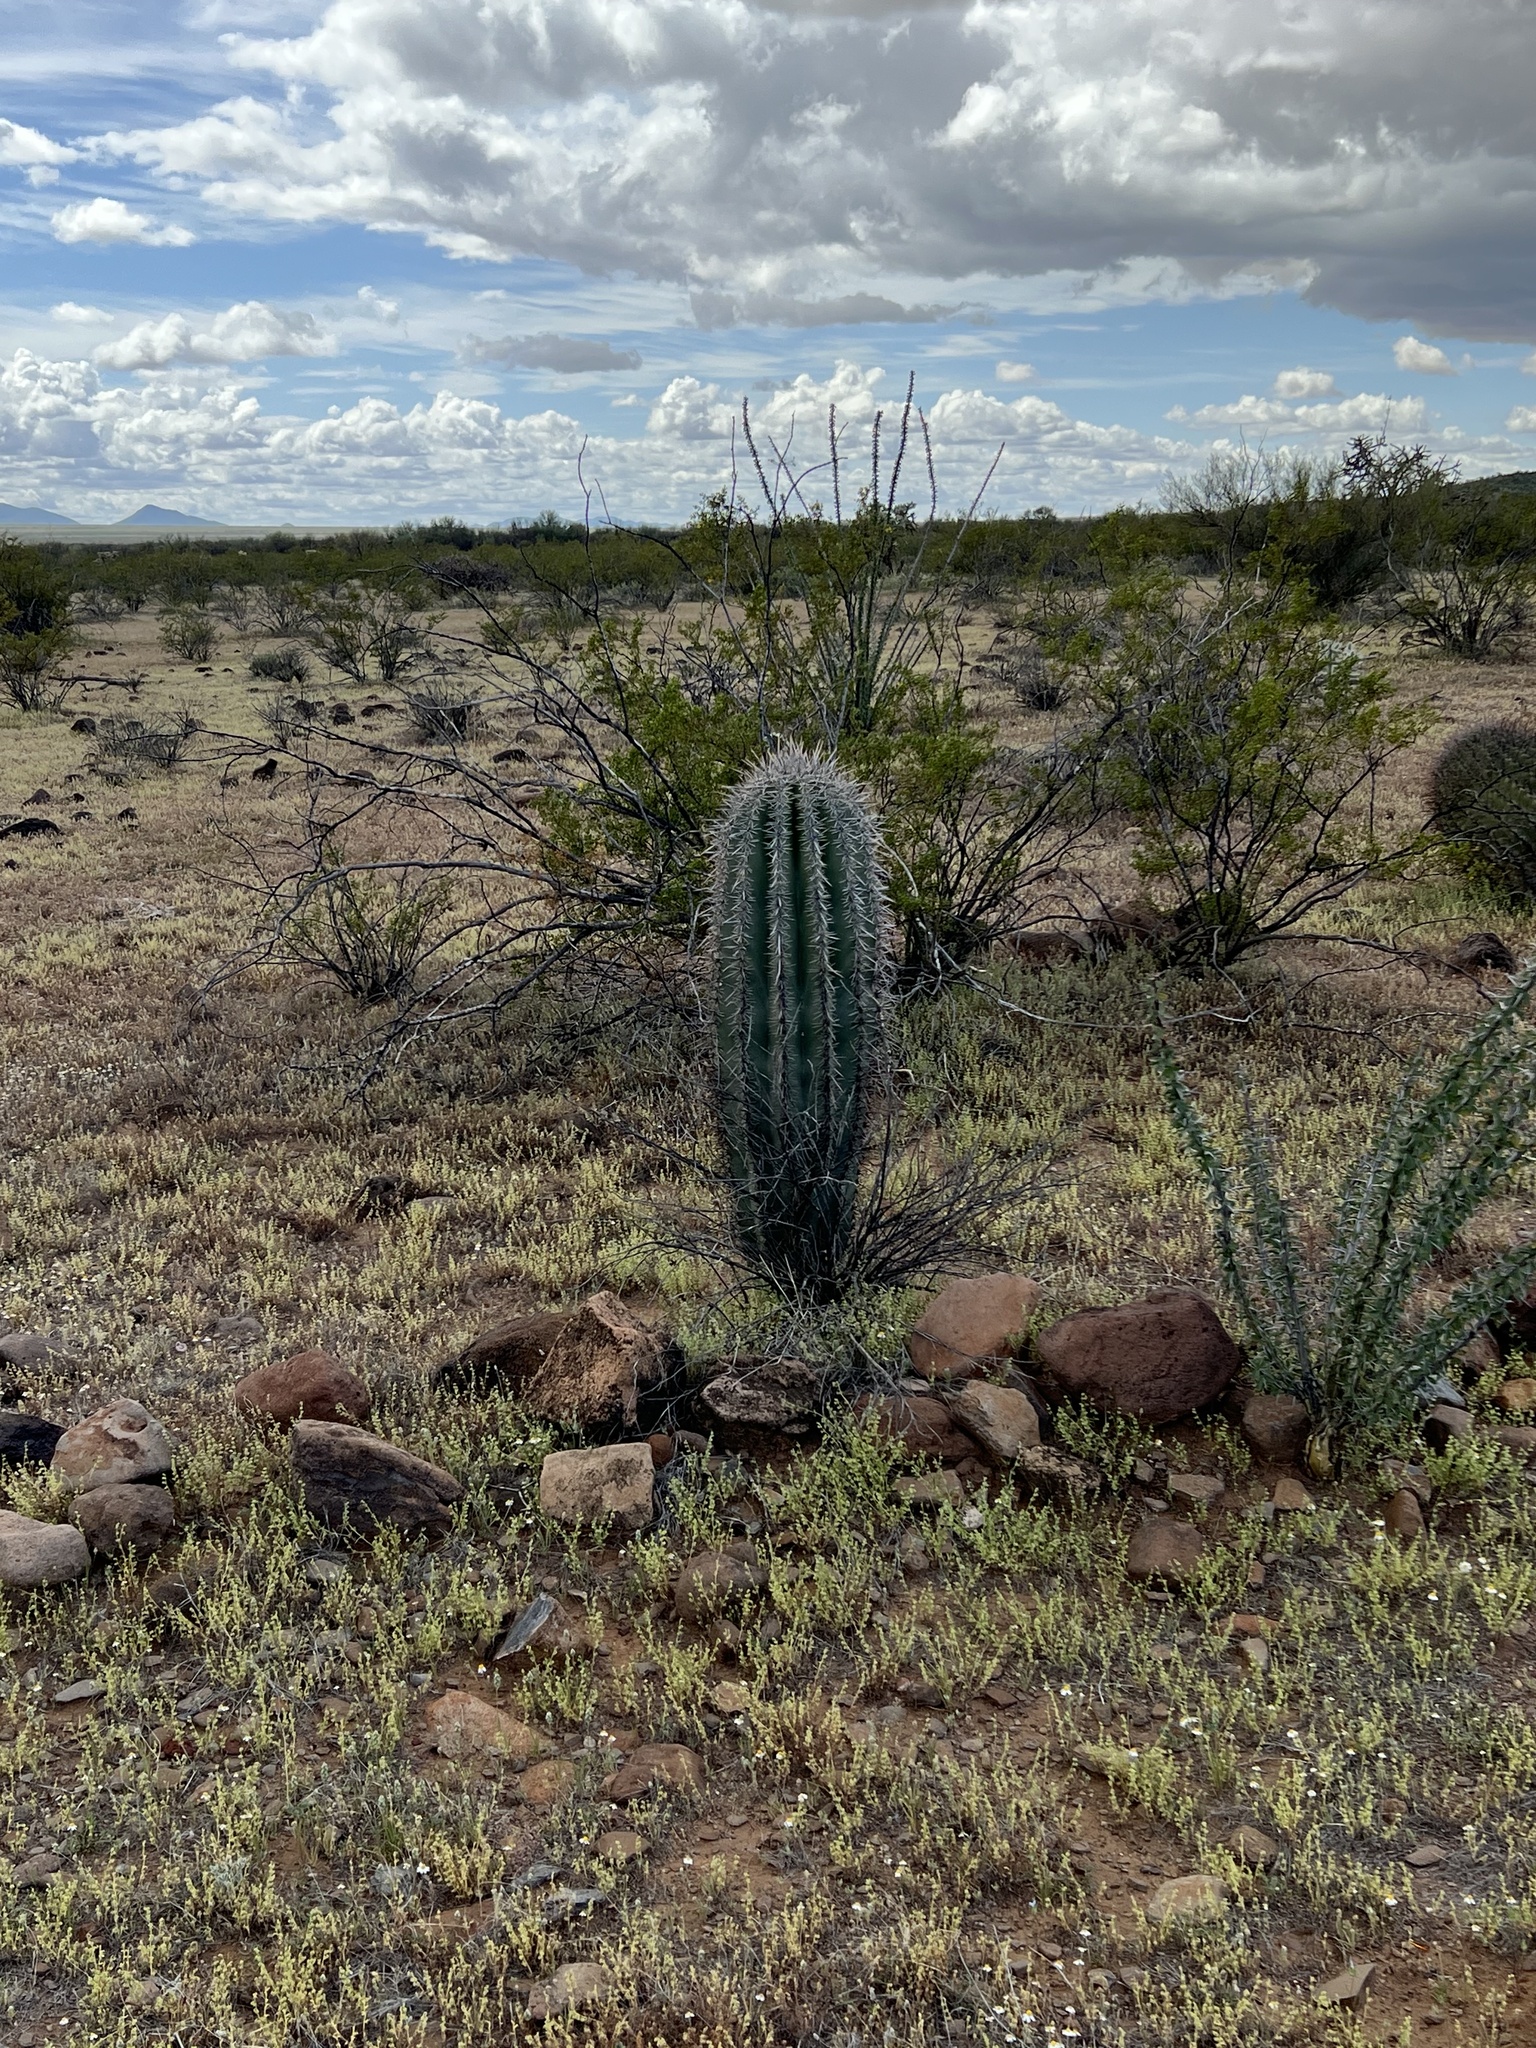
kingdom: Plantae
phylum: Tracheophyta
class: Magnoliopsida
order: Caryophyllales
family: Cactaceae
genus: Carnegiea
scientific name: Carnegiea gigantea
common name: Saguaro
